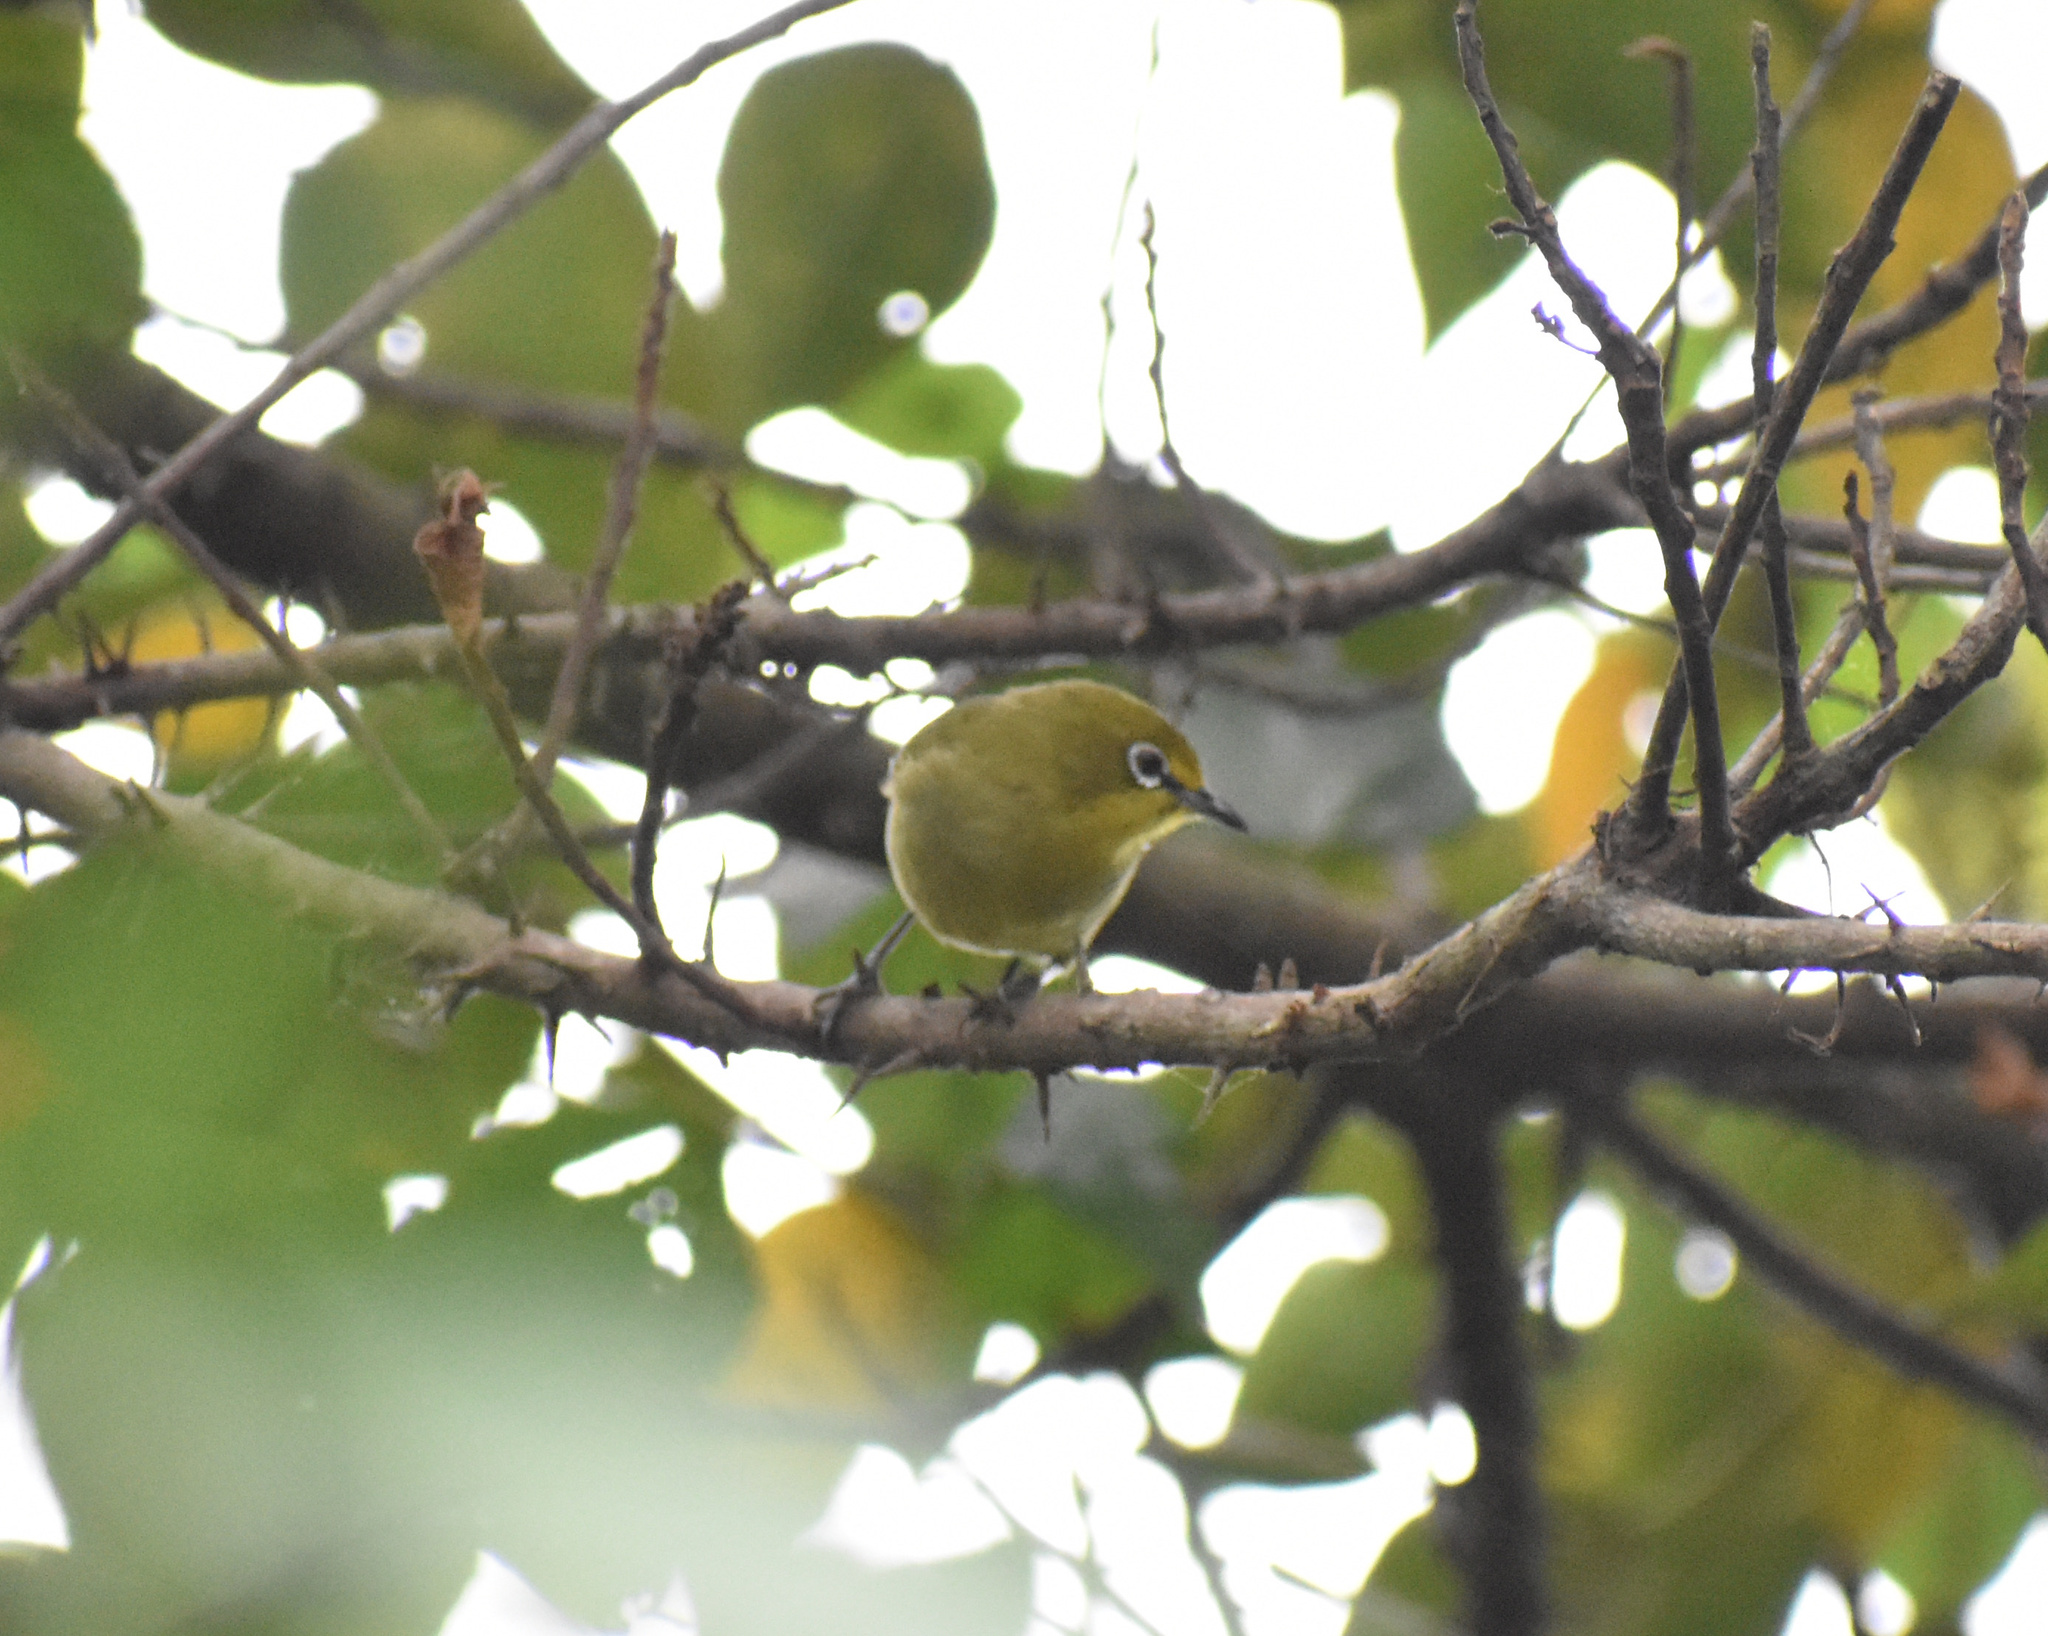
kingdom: Animalia
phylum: Chordata
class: Aves
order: Passeriformes
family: Zosteropidae
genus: Zosterops
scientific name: Zosterops virens
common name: Cape white-eye
